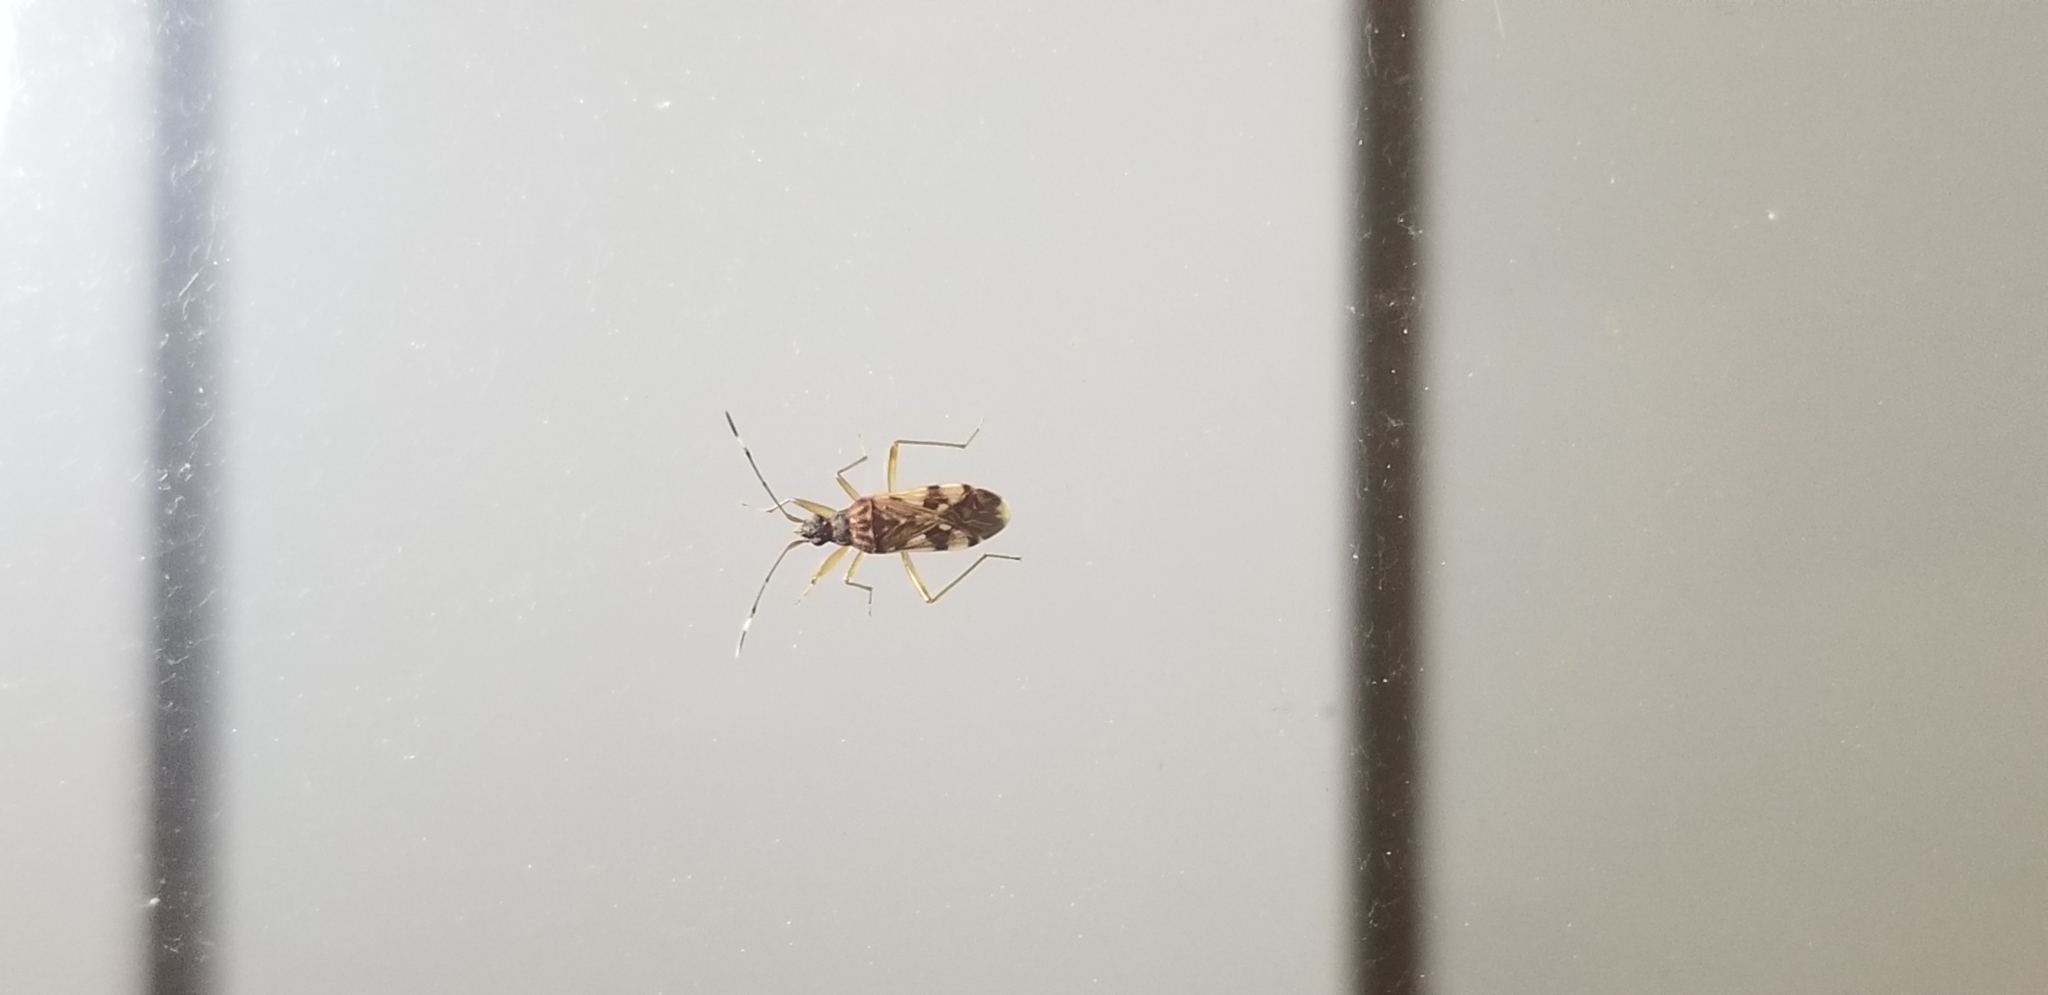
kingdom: Animalia
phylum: Arthropoda
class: Insecta
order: Hemiptera
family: Rhyparochromidae
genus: Ozophora
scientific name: Ozophora picturata
